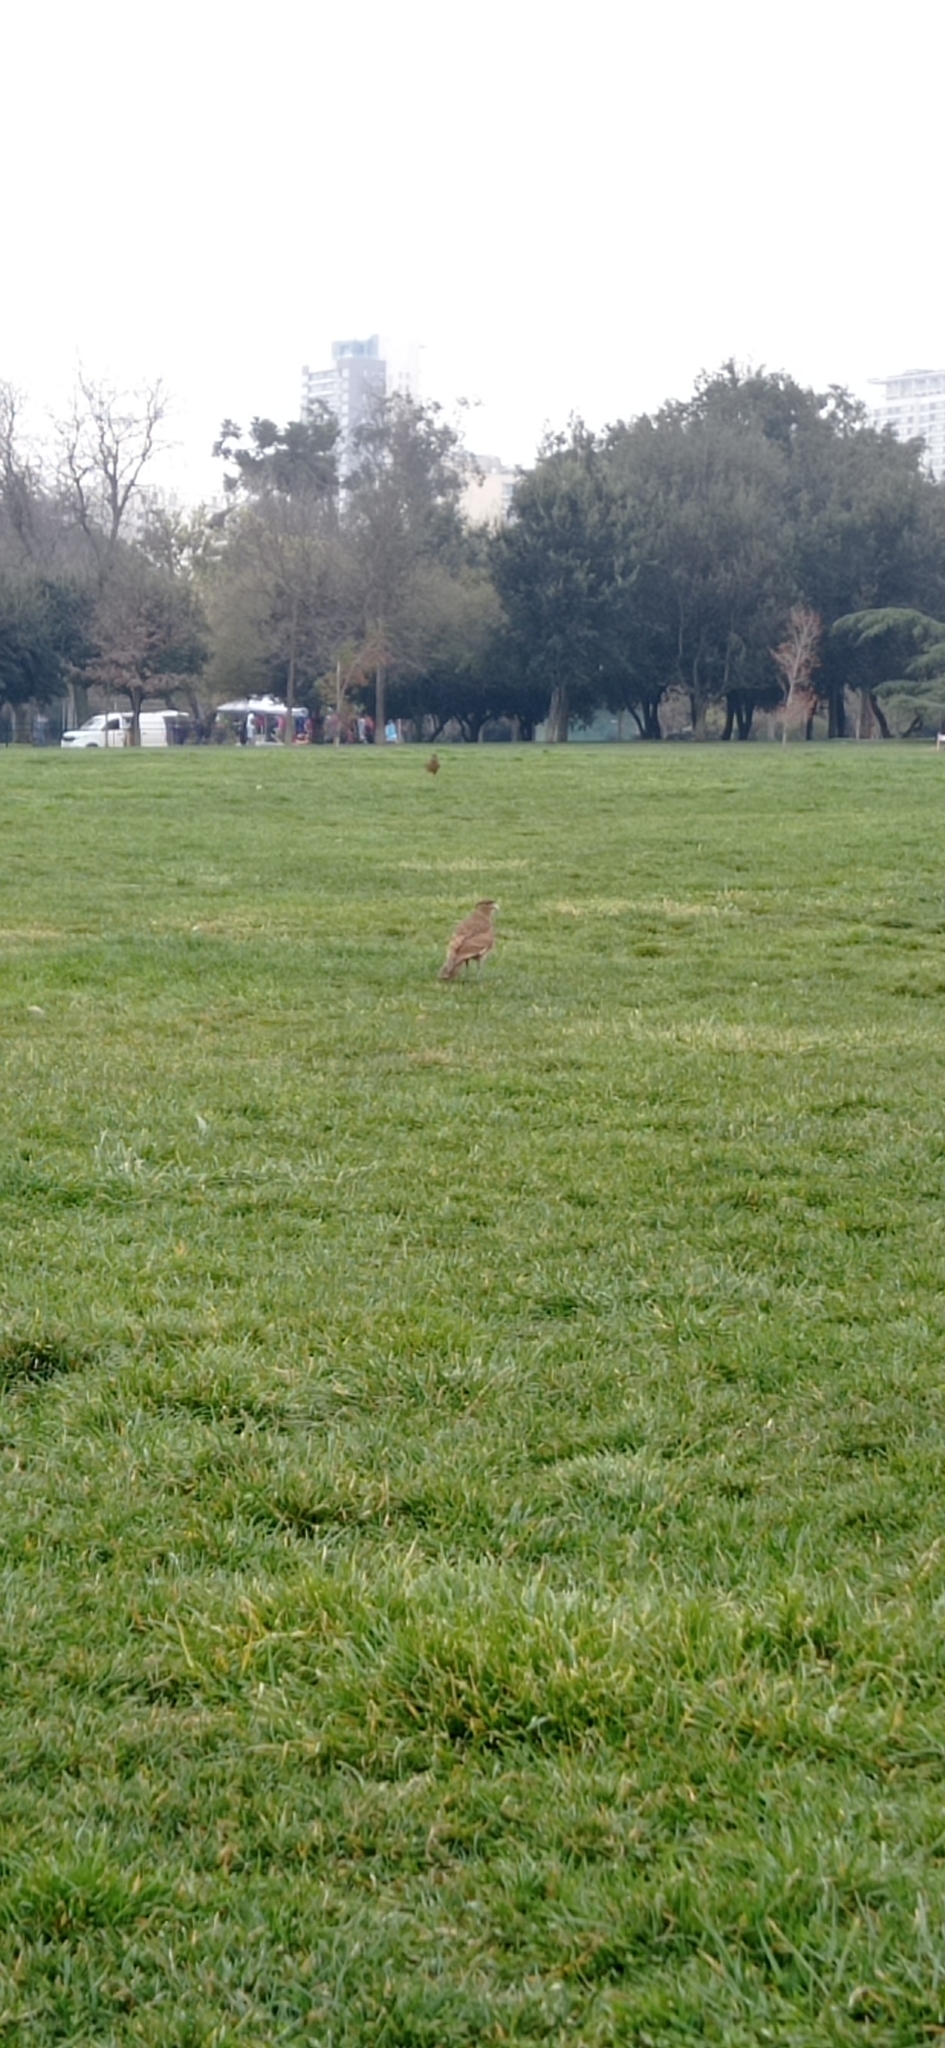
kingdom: Animalia
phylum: Chordata
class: Aves
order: Falconiformes
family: Falconidae
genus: Daptrius
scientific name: Daptrius
